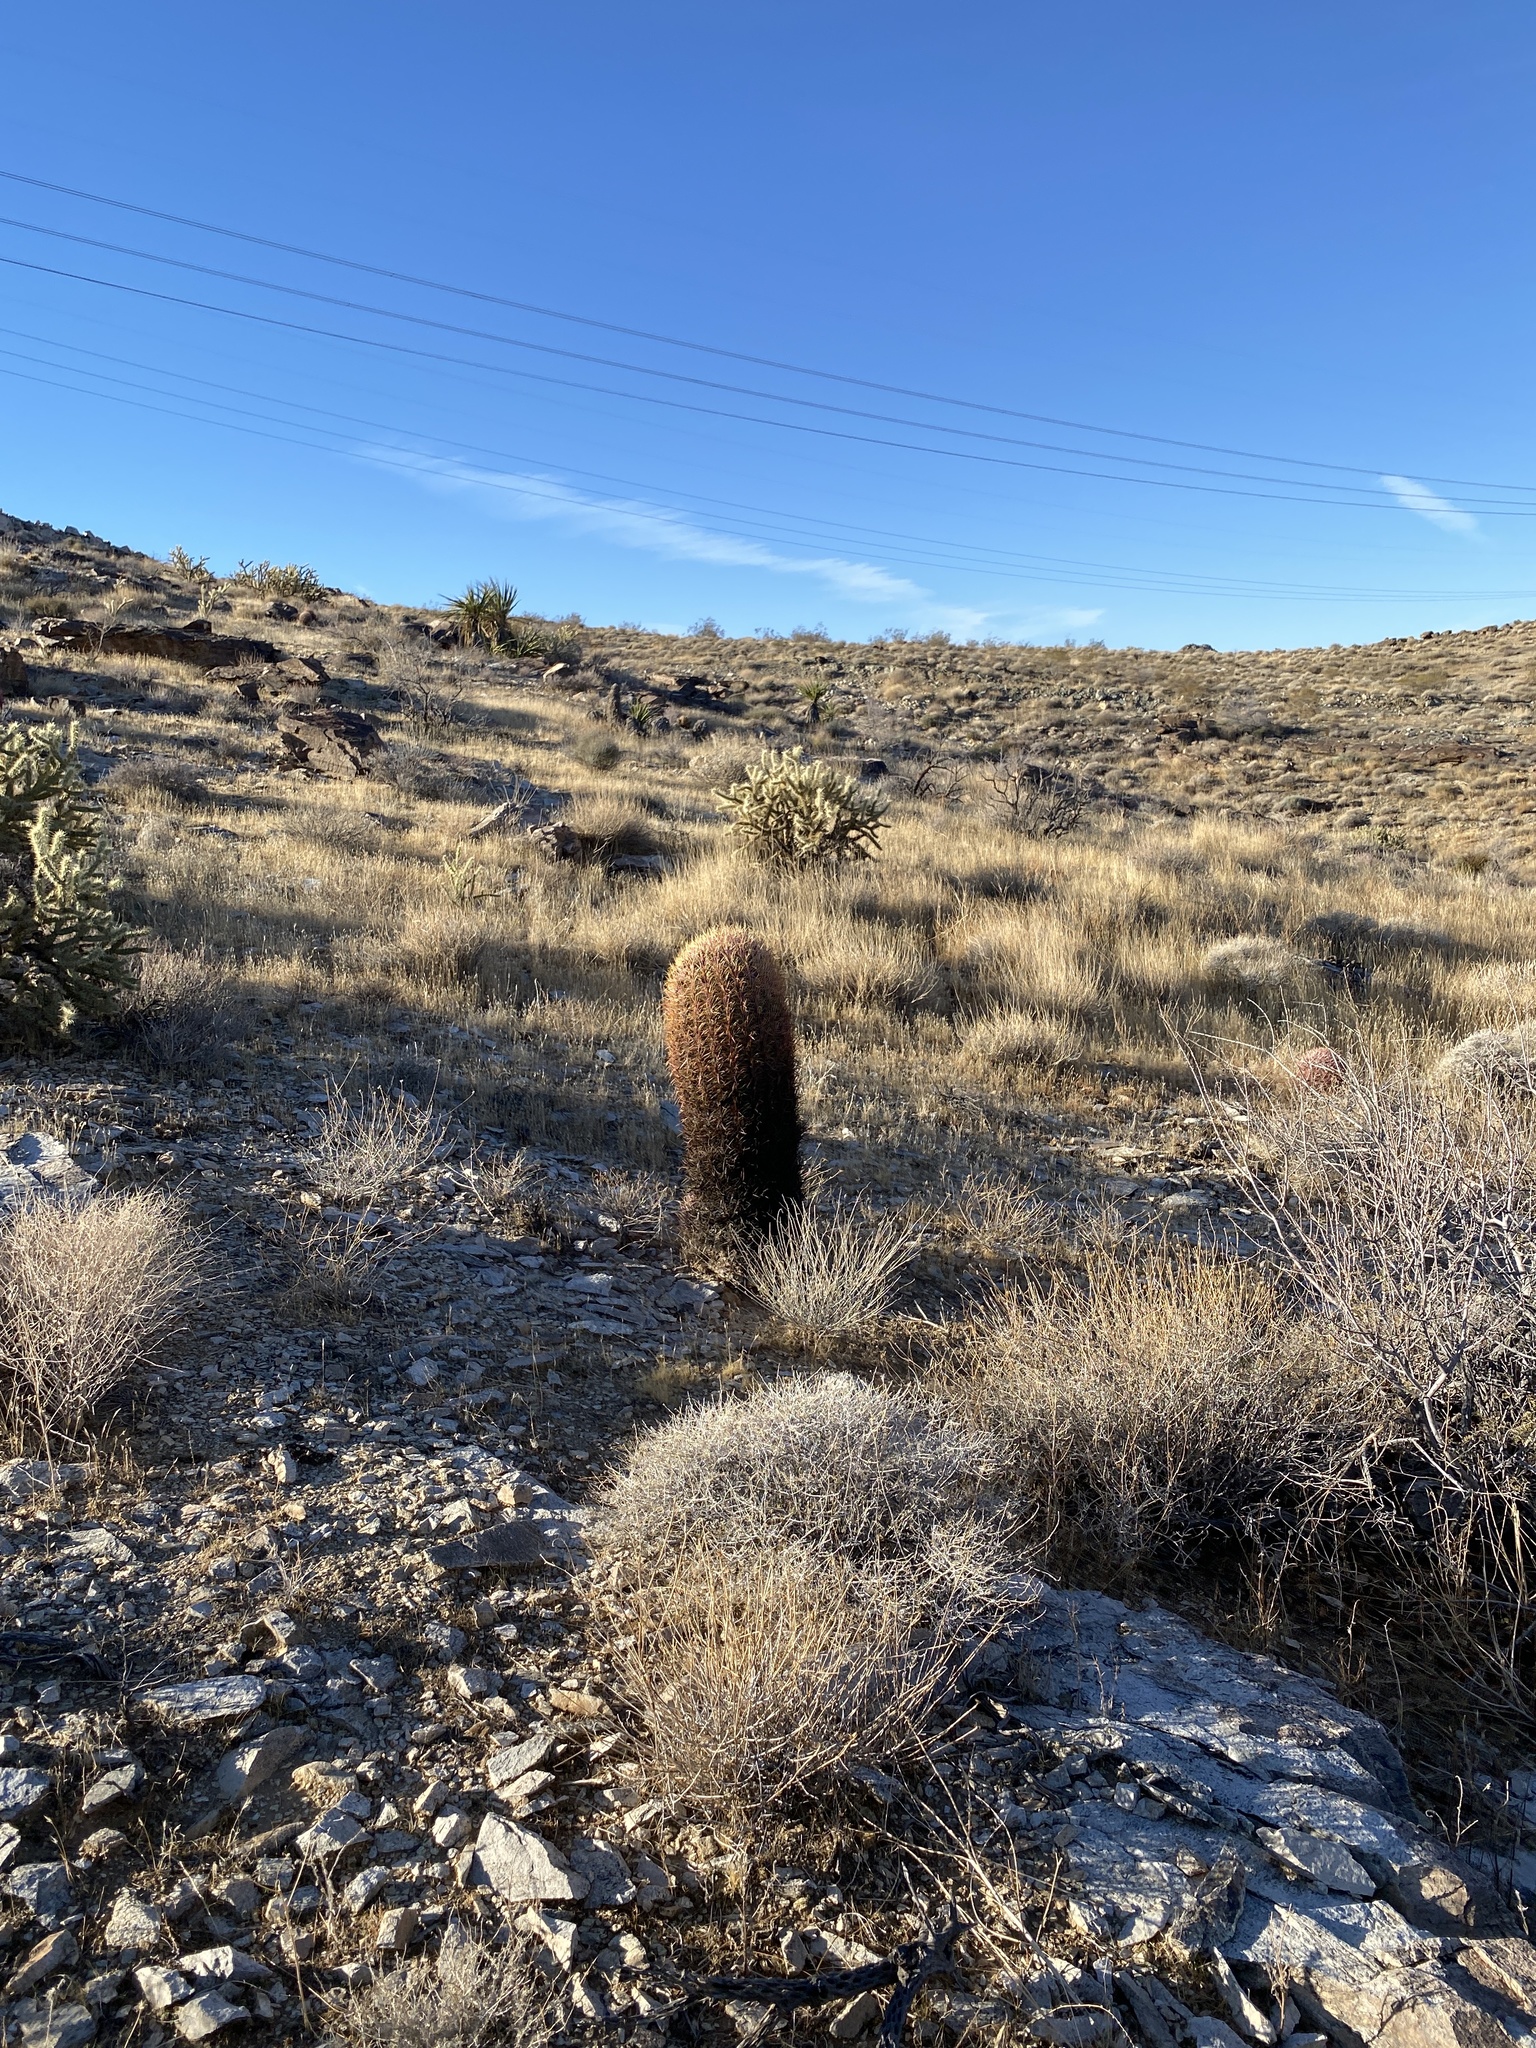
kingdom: Plantae
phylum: Tracheophyta
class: Magnoliopsida
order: Caryophyllales
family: Cactaceae
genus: Ferocactus
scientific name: Ferocactus cylindraceus
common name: California barrel cactus
